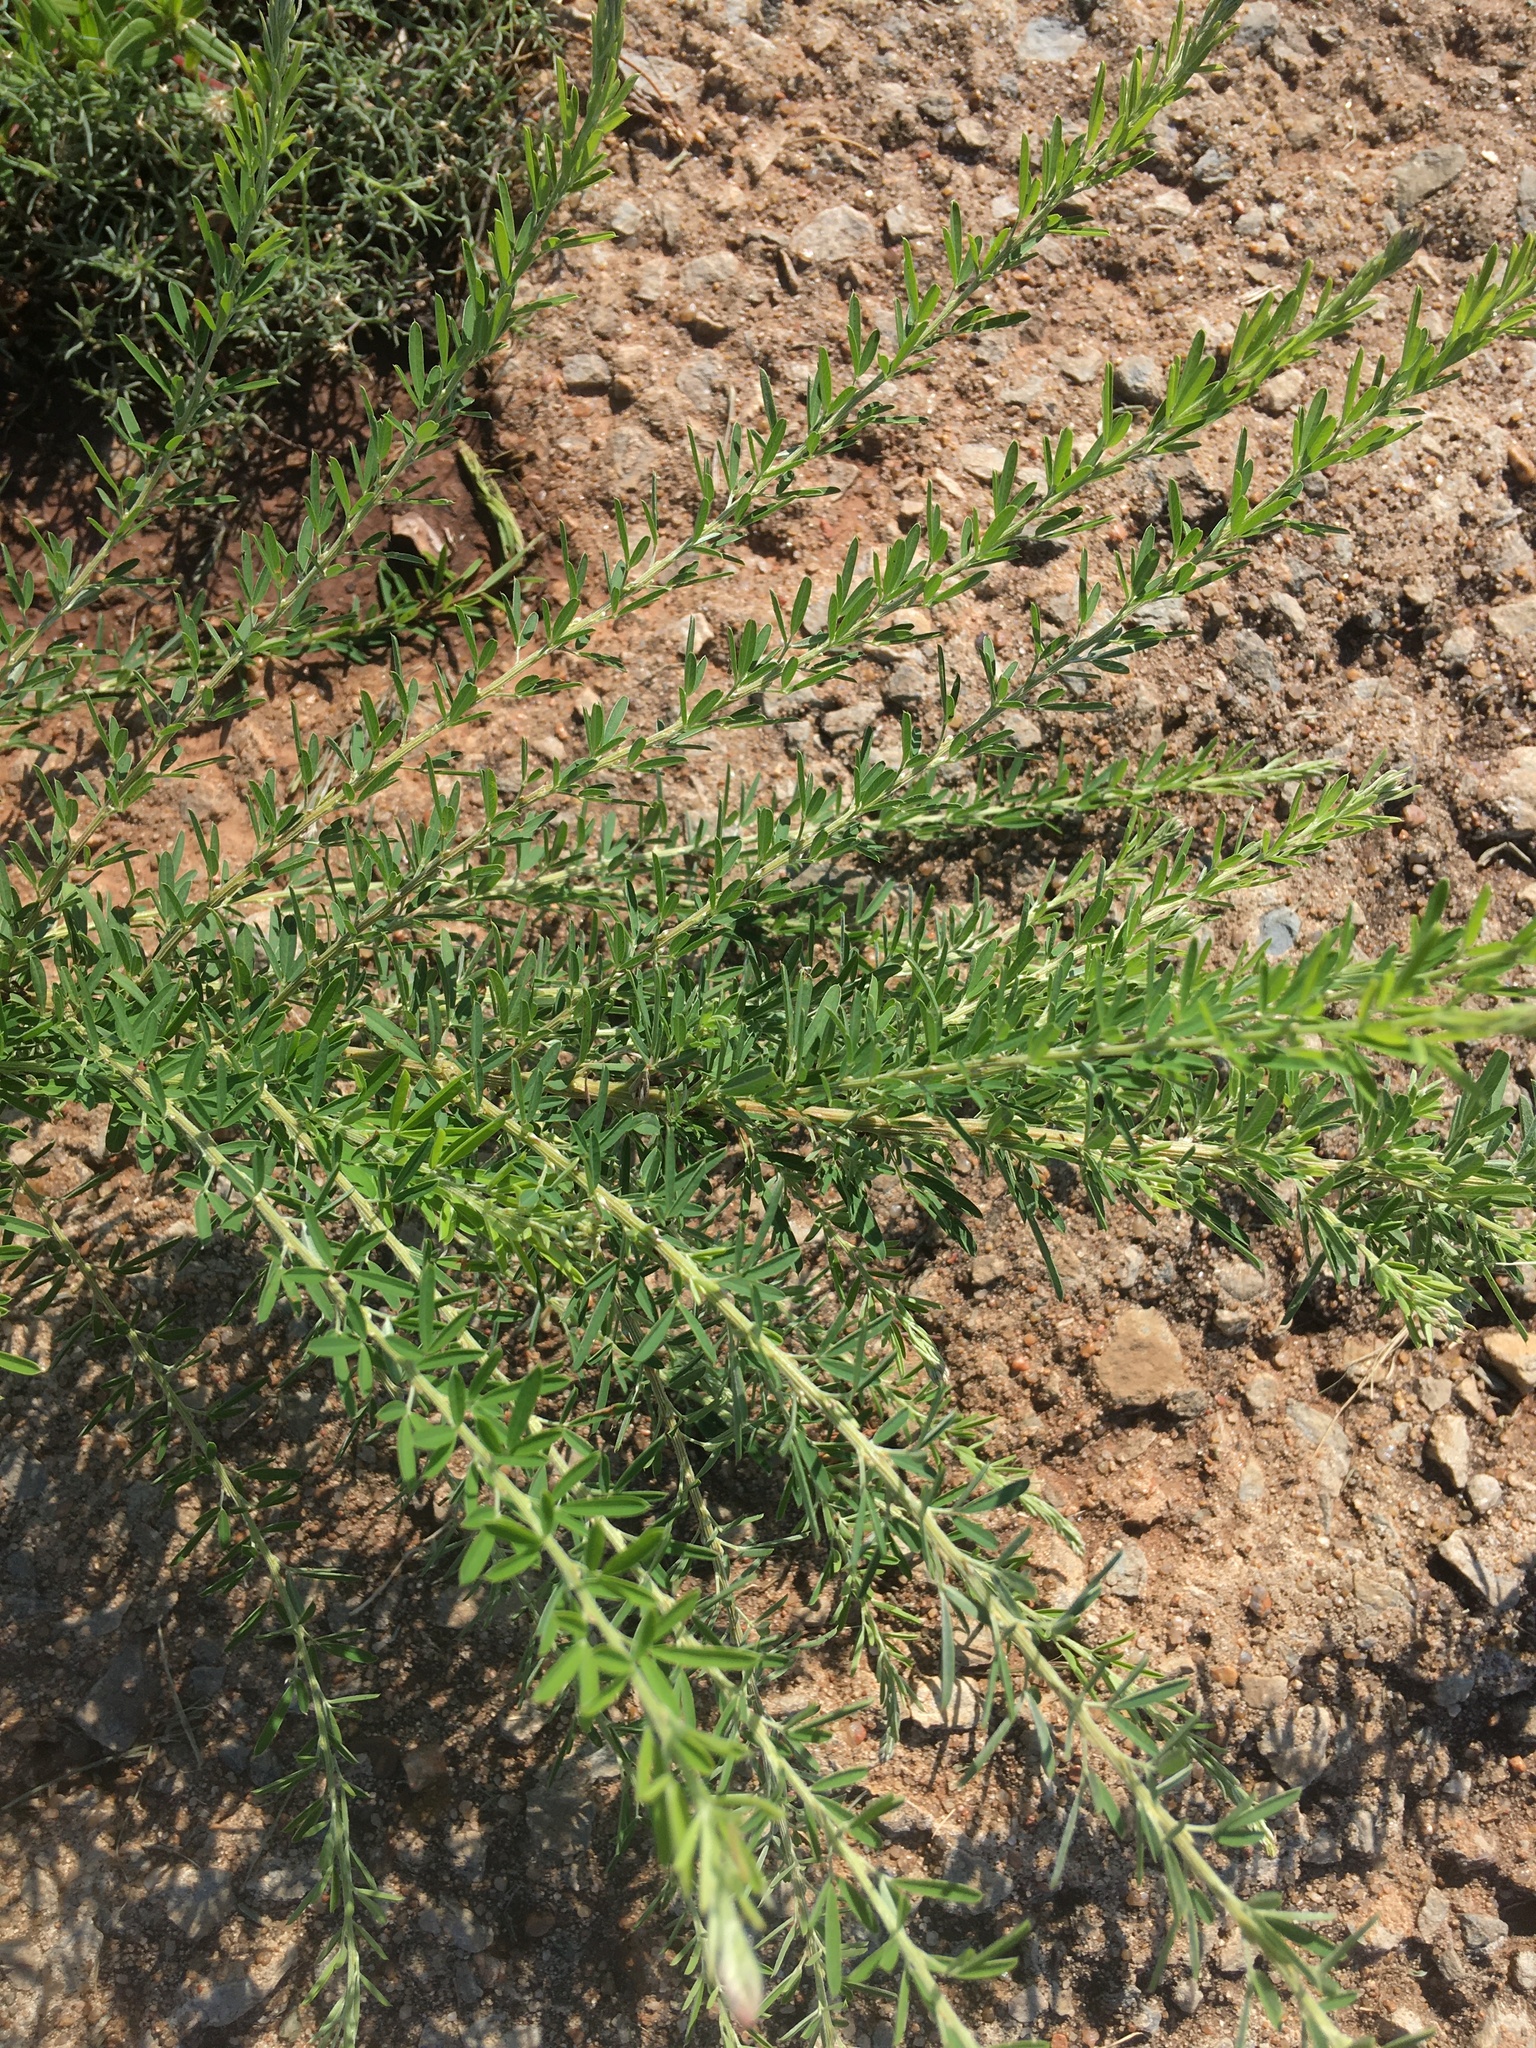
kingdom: Plantae
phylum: Tracheophyta
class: Magnoliopsida
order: Fabales
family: Fabaceae
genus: Lespedeza
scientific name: Lespedeza cuneata
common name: Chinese bush-clover
